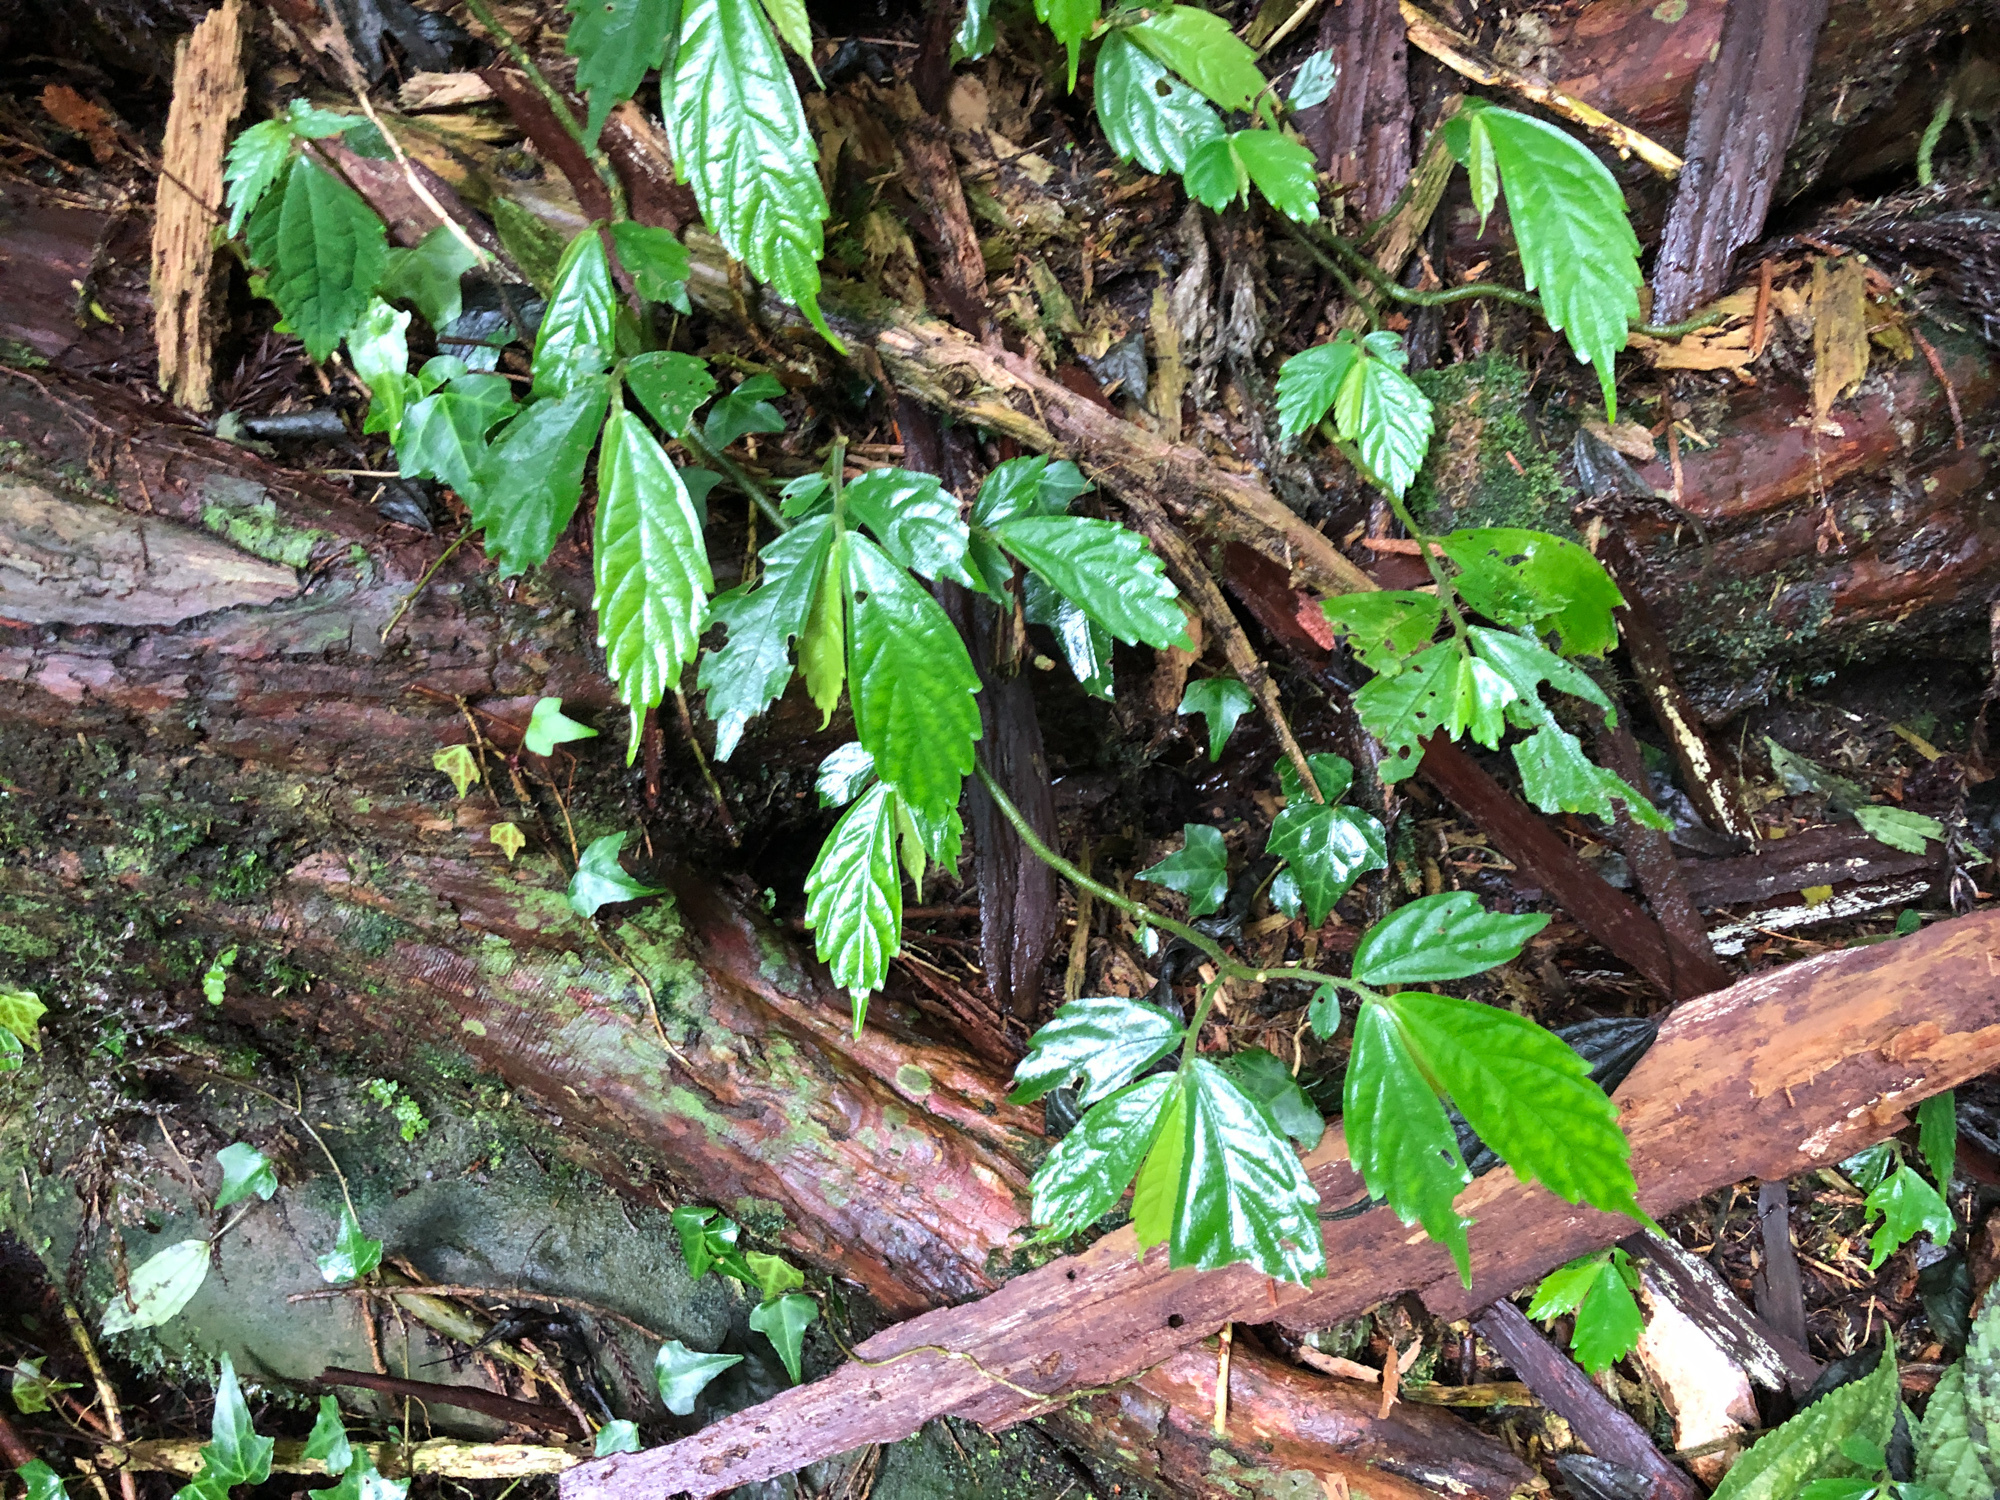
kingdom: Plantae
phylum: Tracheophyta
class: Magnoliopsida
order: Rosales
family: Urticaceae
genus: Elatostema
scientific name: Elatostema lineolatum
